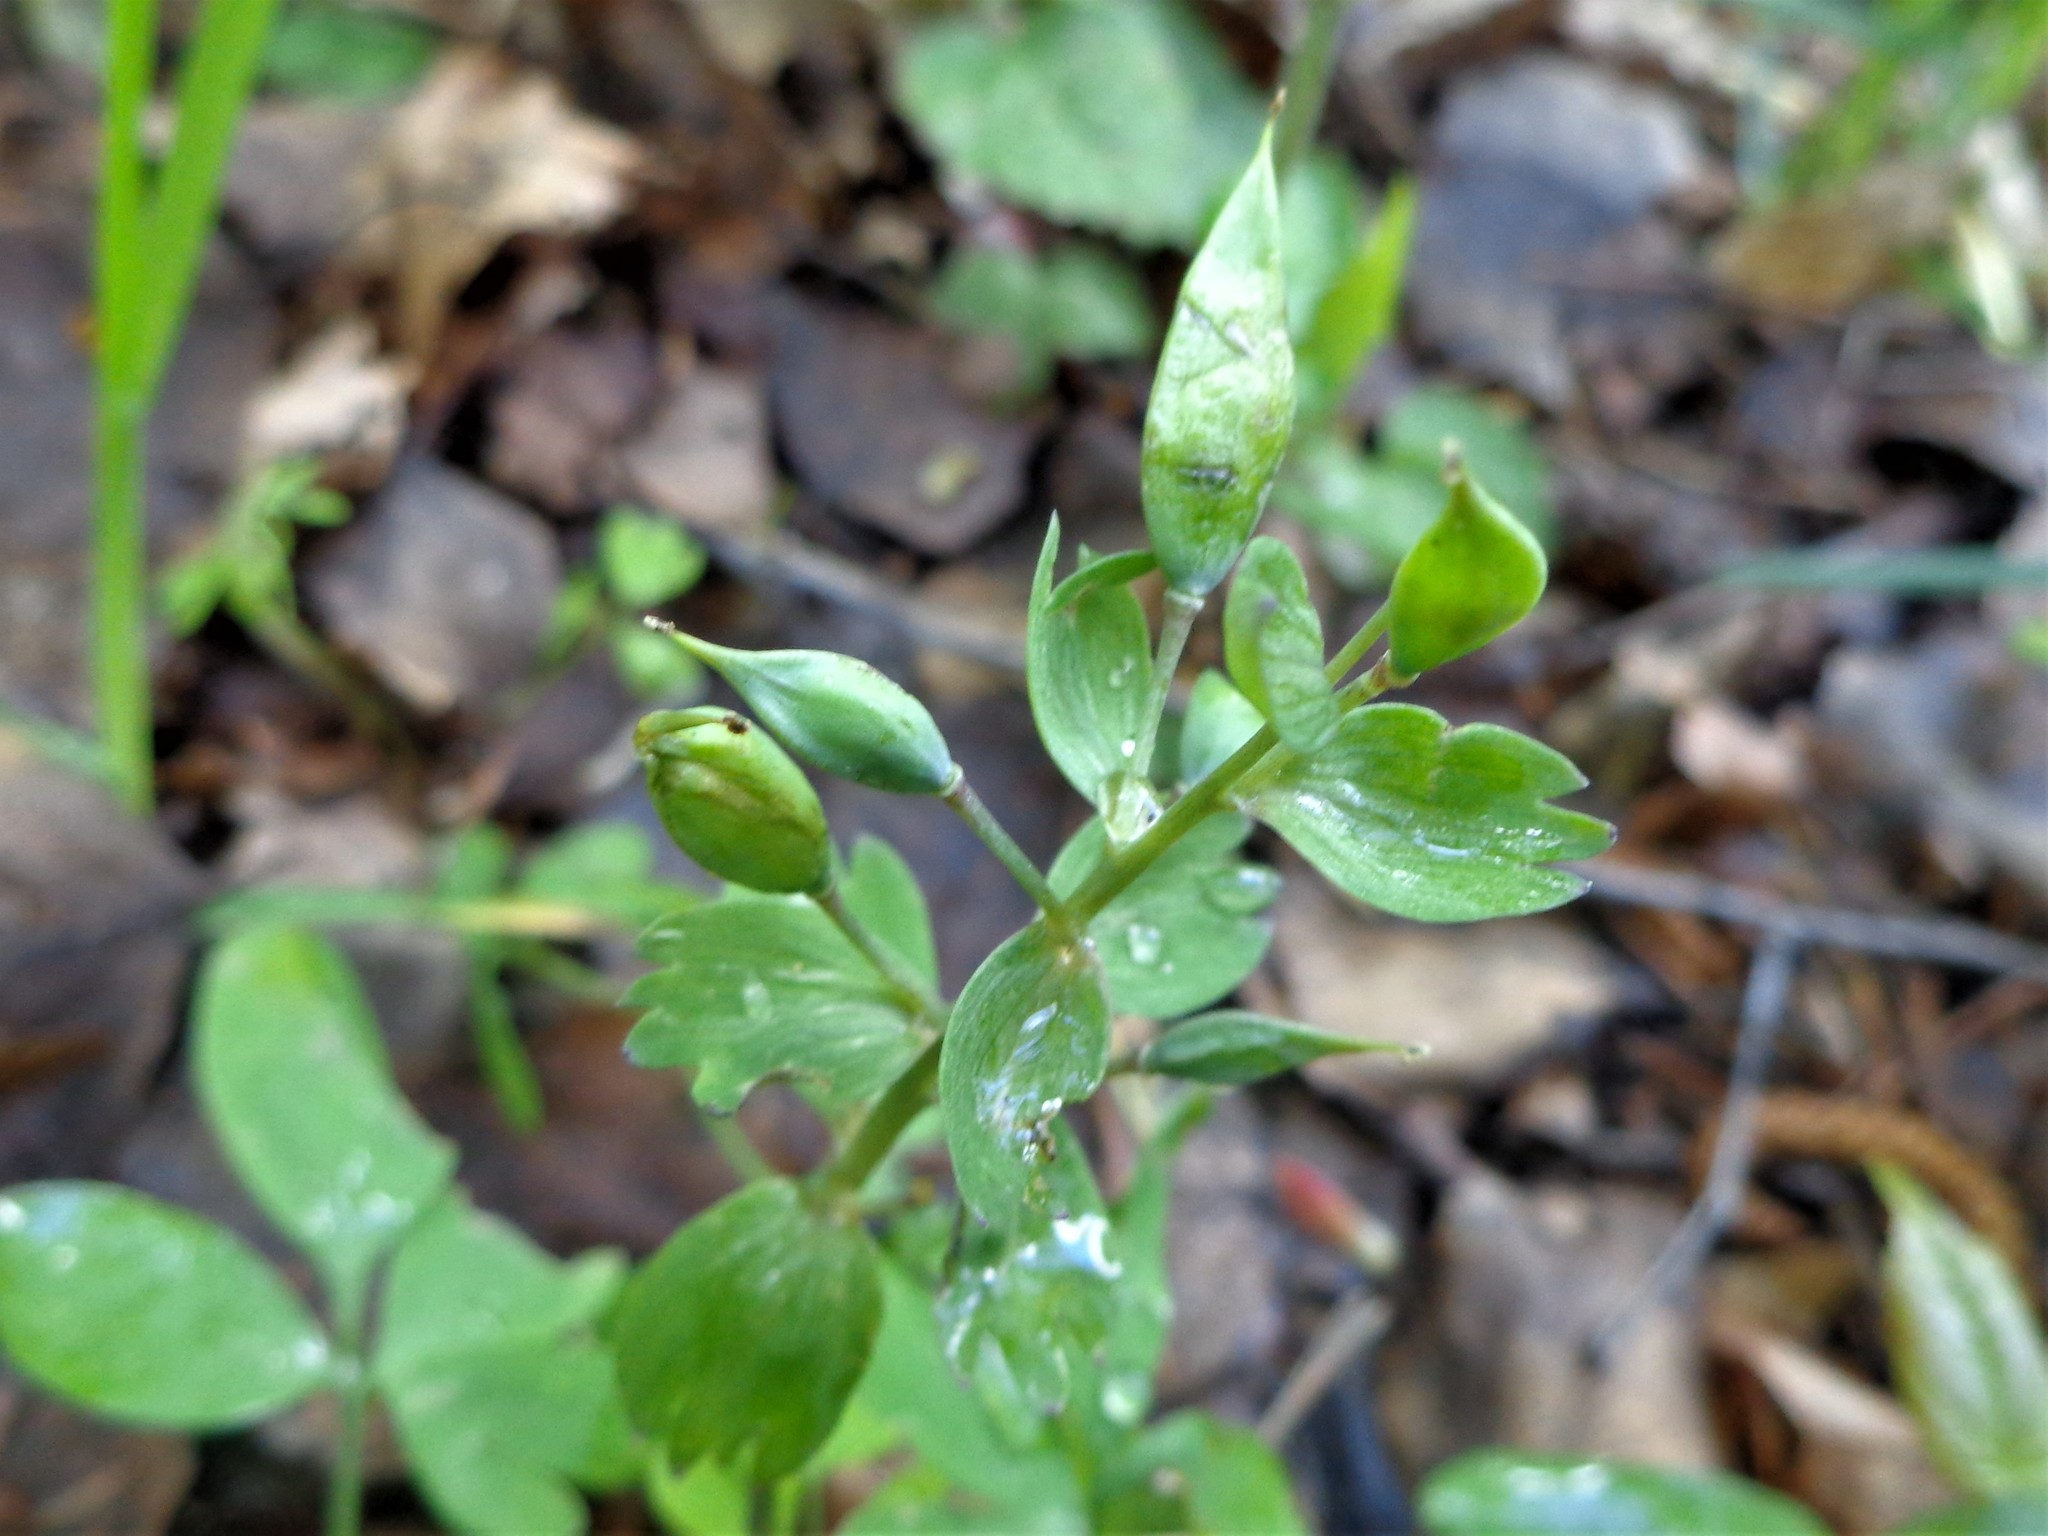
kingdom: Plantae
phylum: Tracheophyta
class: Magnoliopsida
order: Ranunculales
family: Papaveraceae
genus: Corydalis
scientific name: Corydalis solida
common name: Bird-in-a-bush
